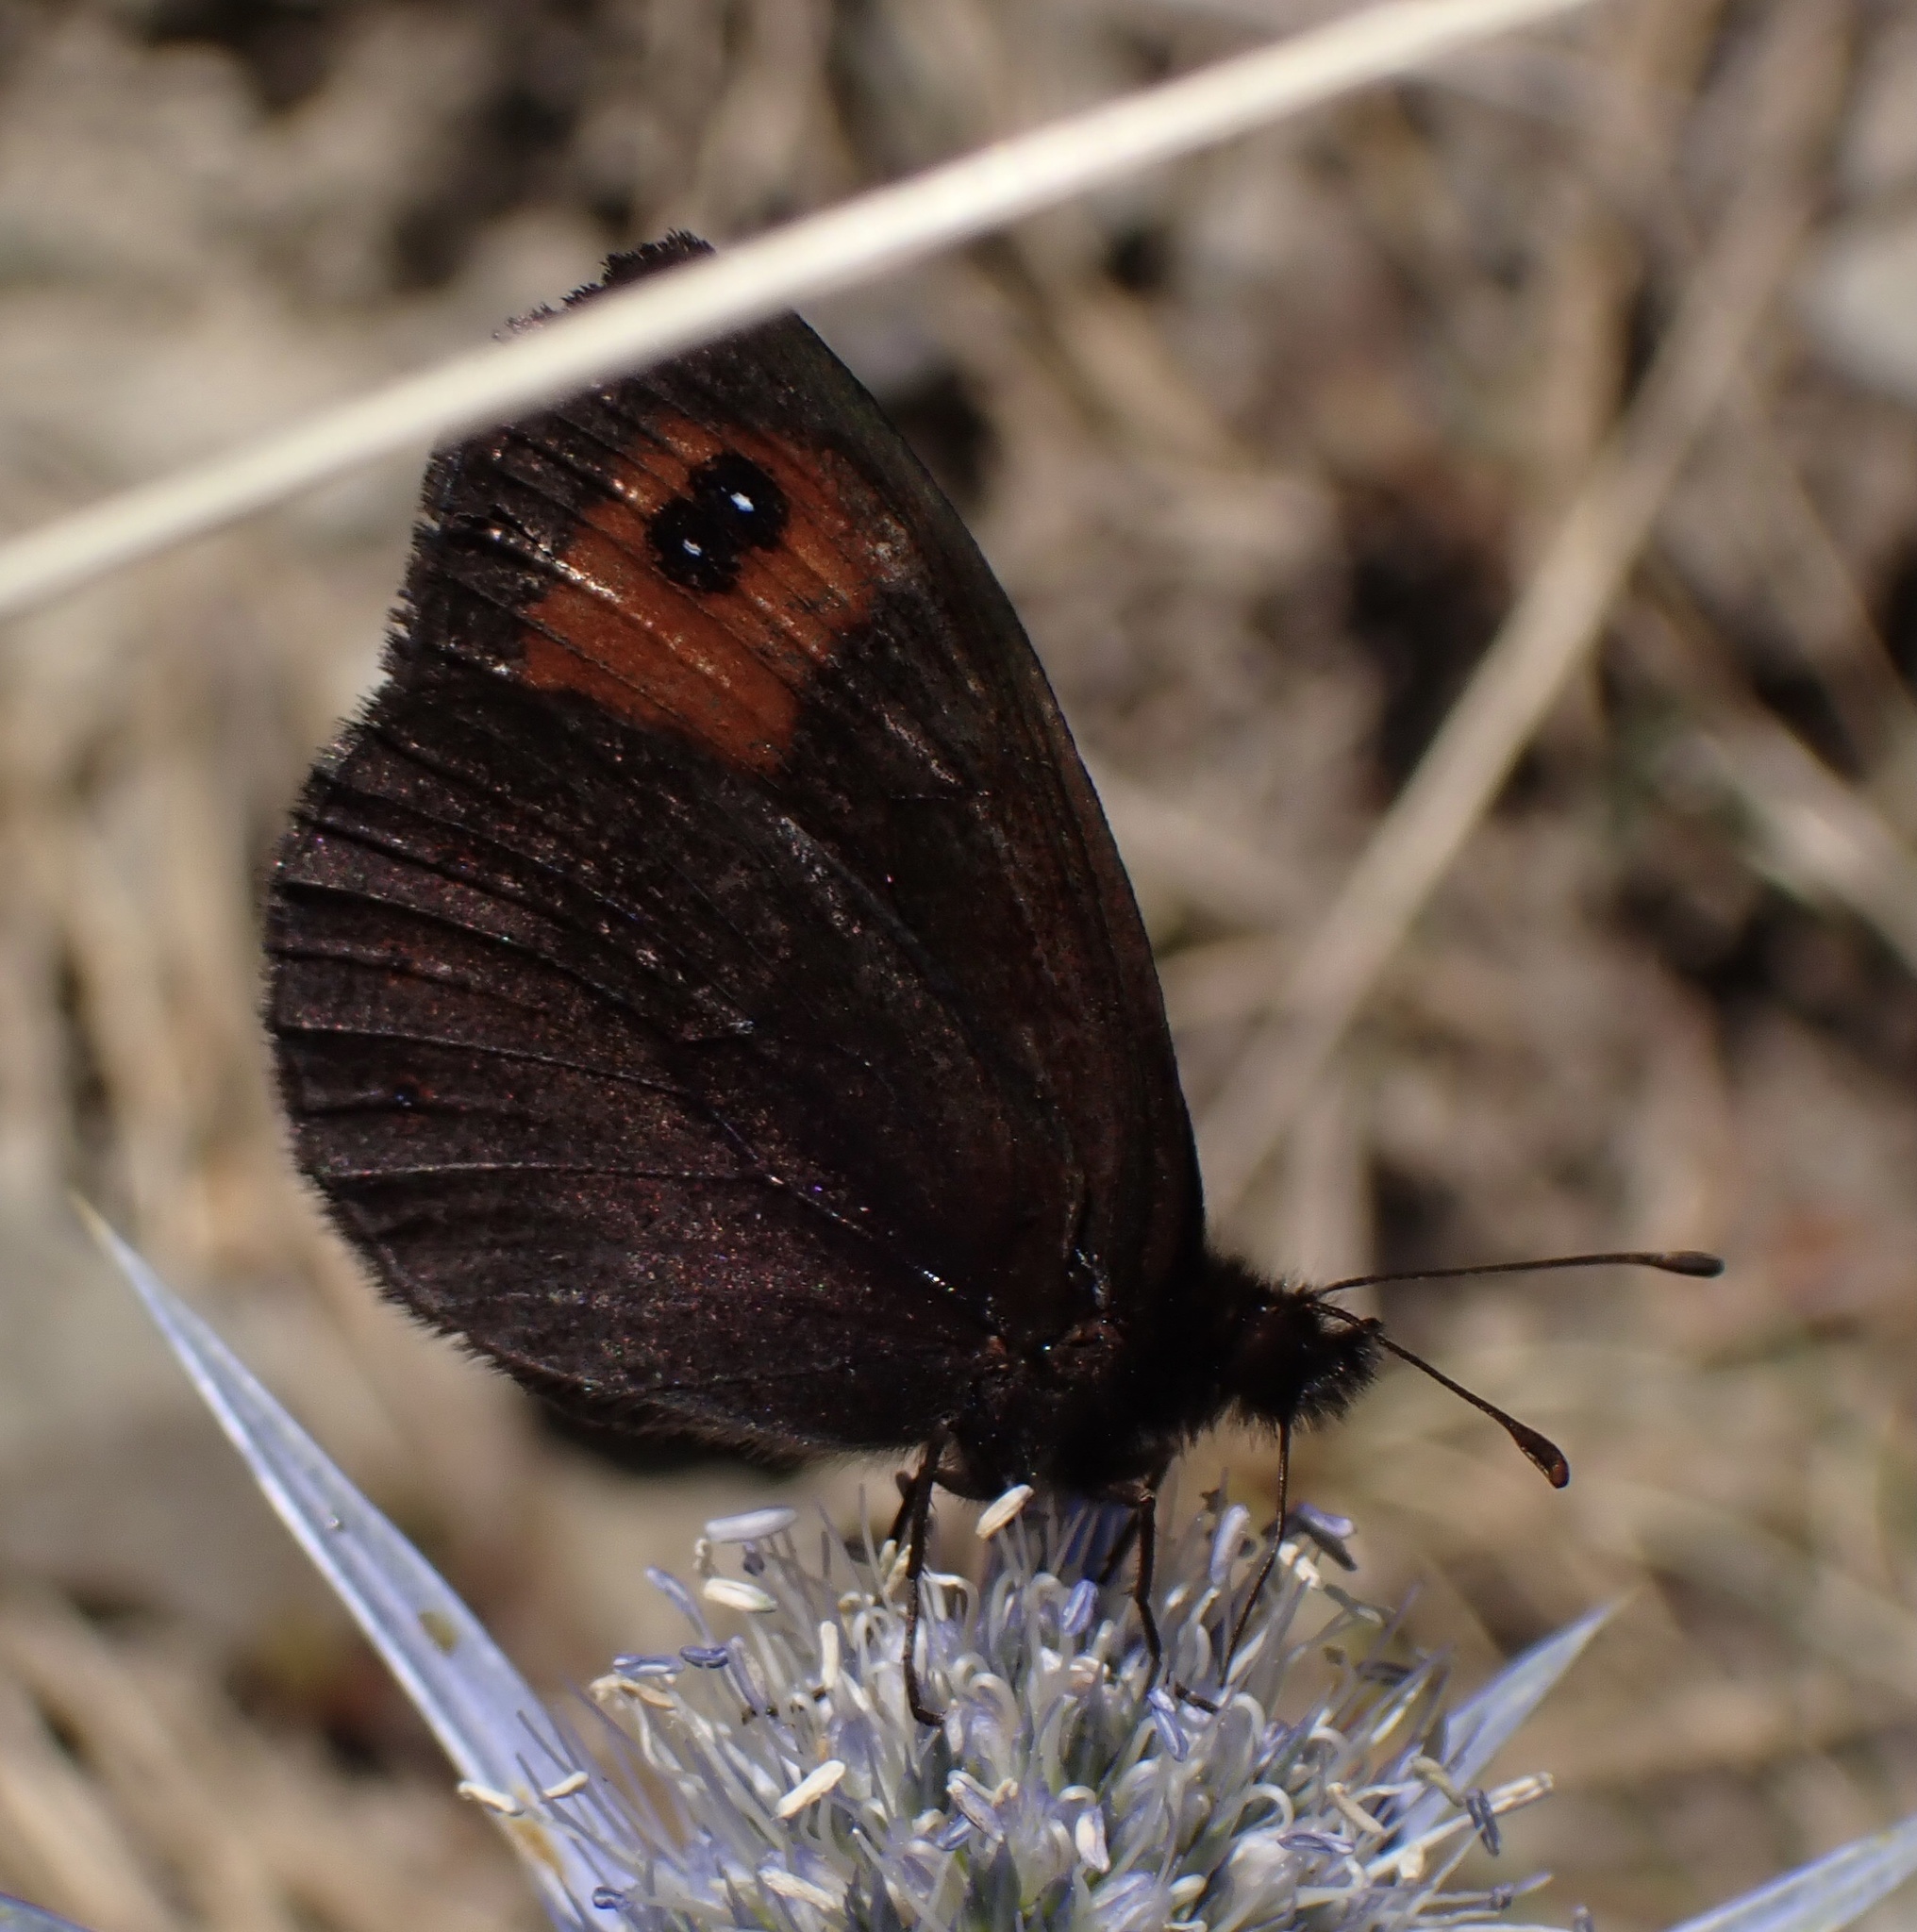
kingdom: Animalia
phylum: Arthropoda
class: Insecta
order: Lepidoptera
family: Nymphalidae
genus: Erebia
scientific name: Erebia meolans
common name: Piedmont ringlet
